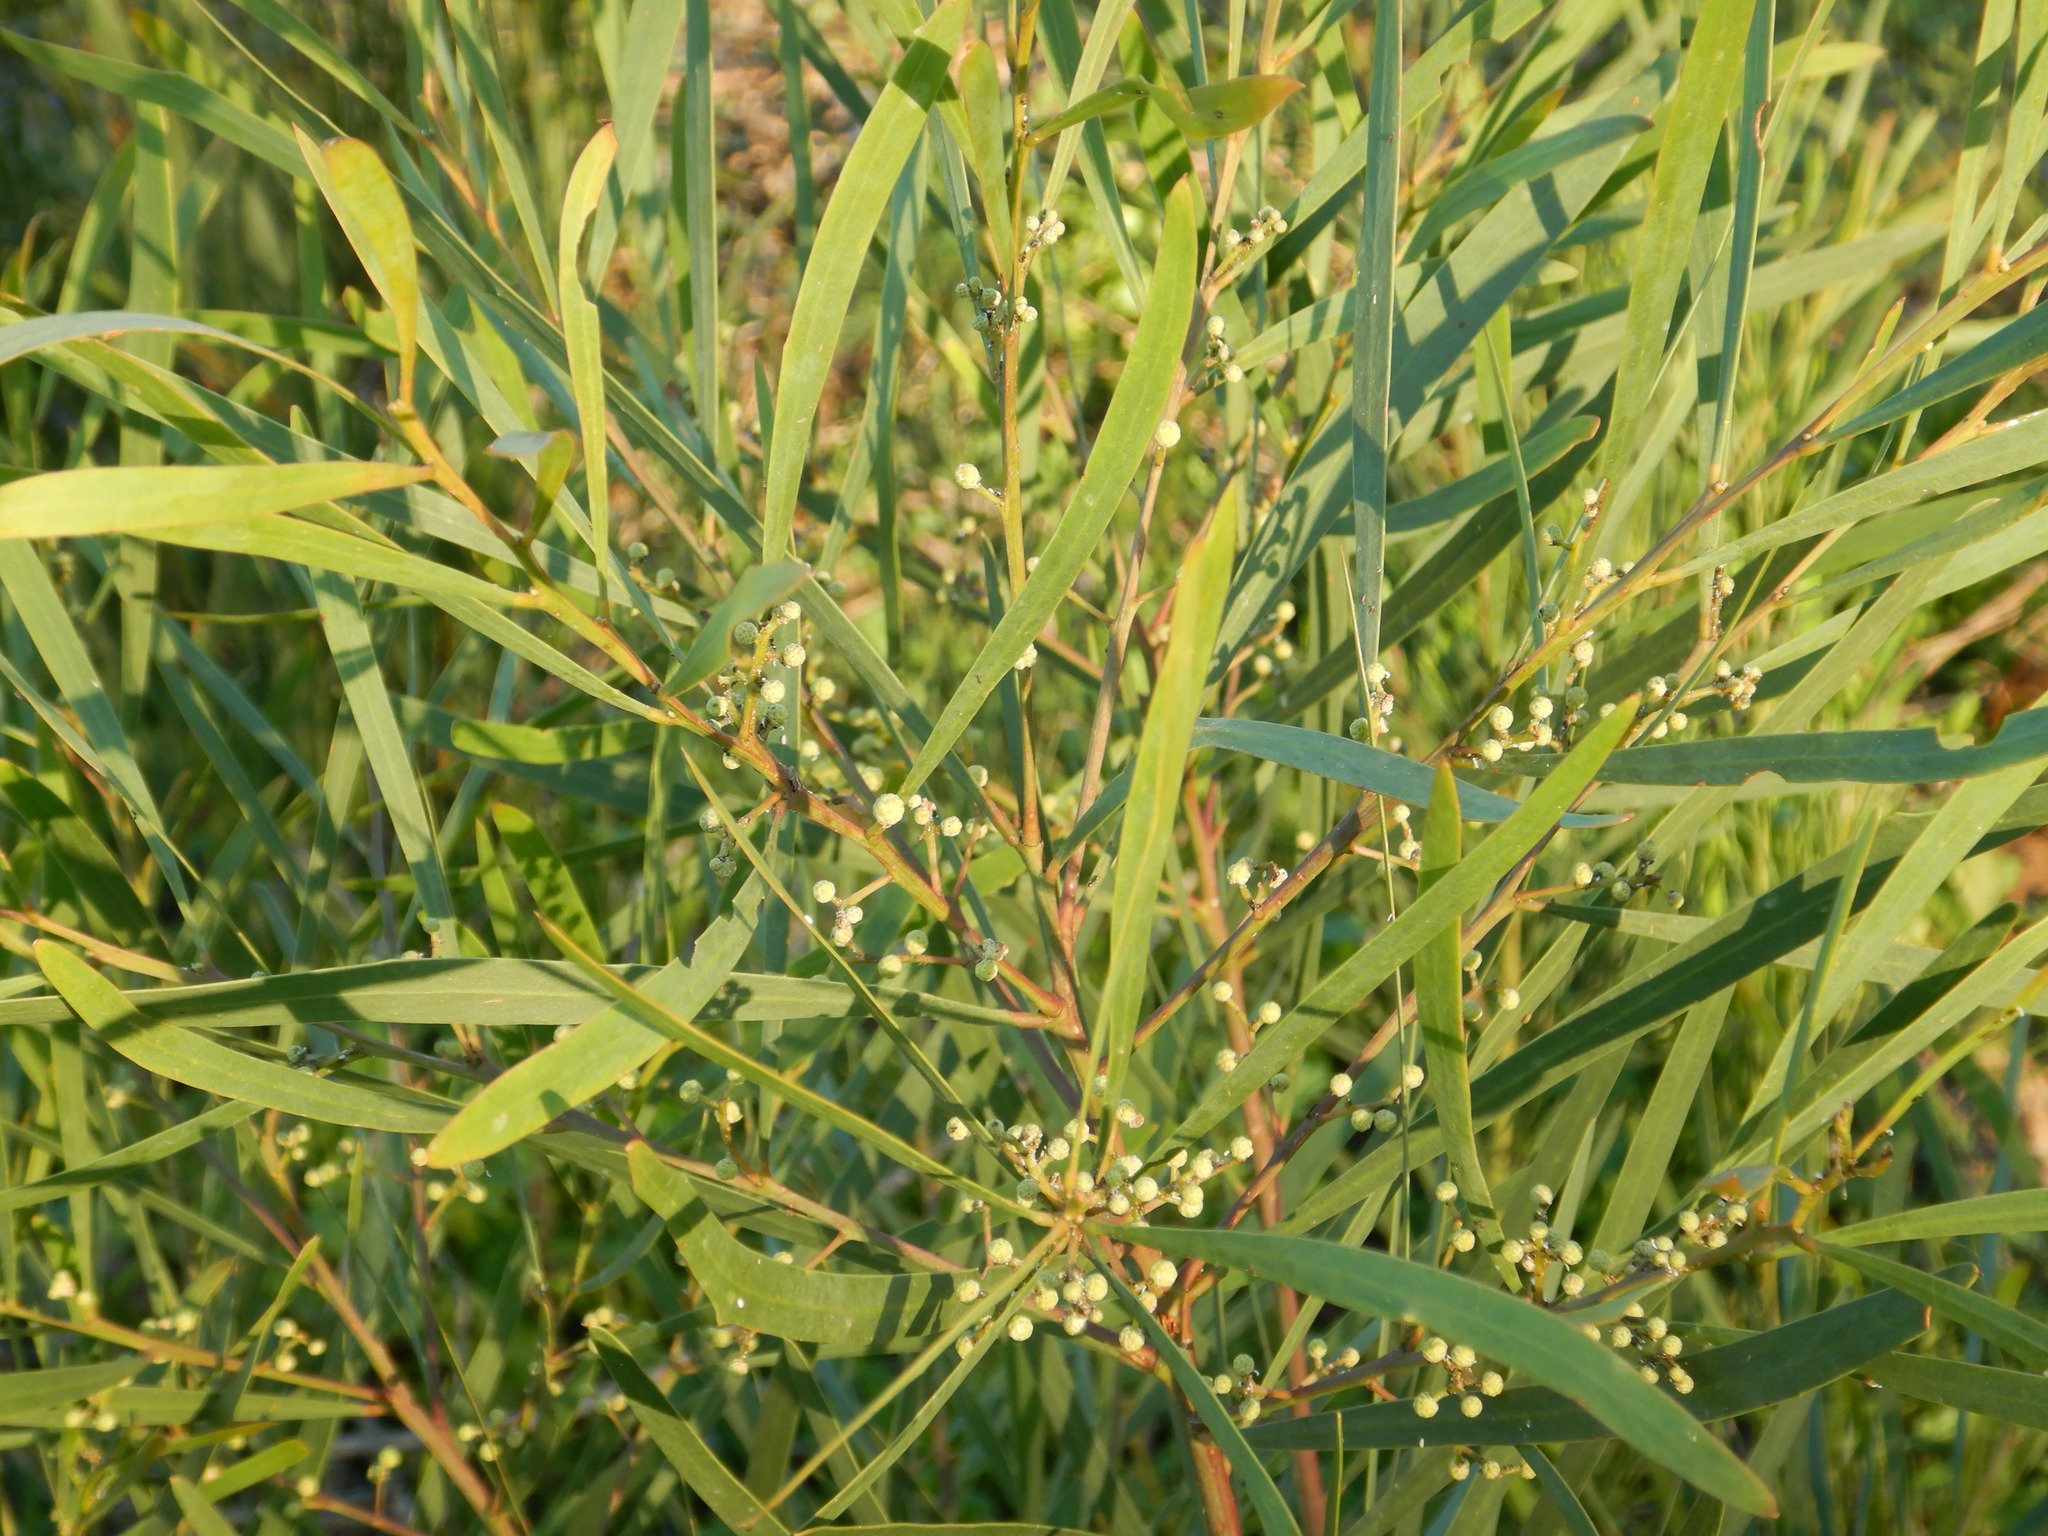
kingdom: Plantae
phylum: Tracheophyta
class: Magnoliopsida
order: Fabales
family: Fabaceae
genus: Acacia
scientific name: Acacia provincialis
